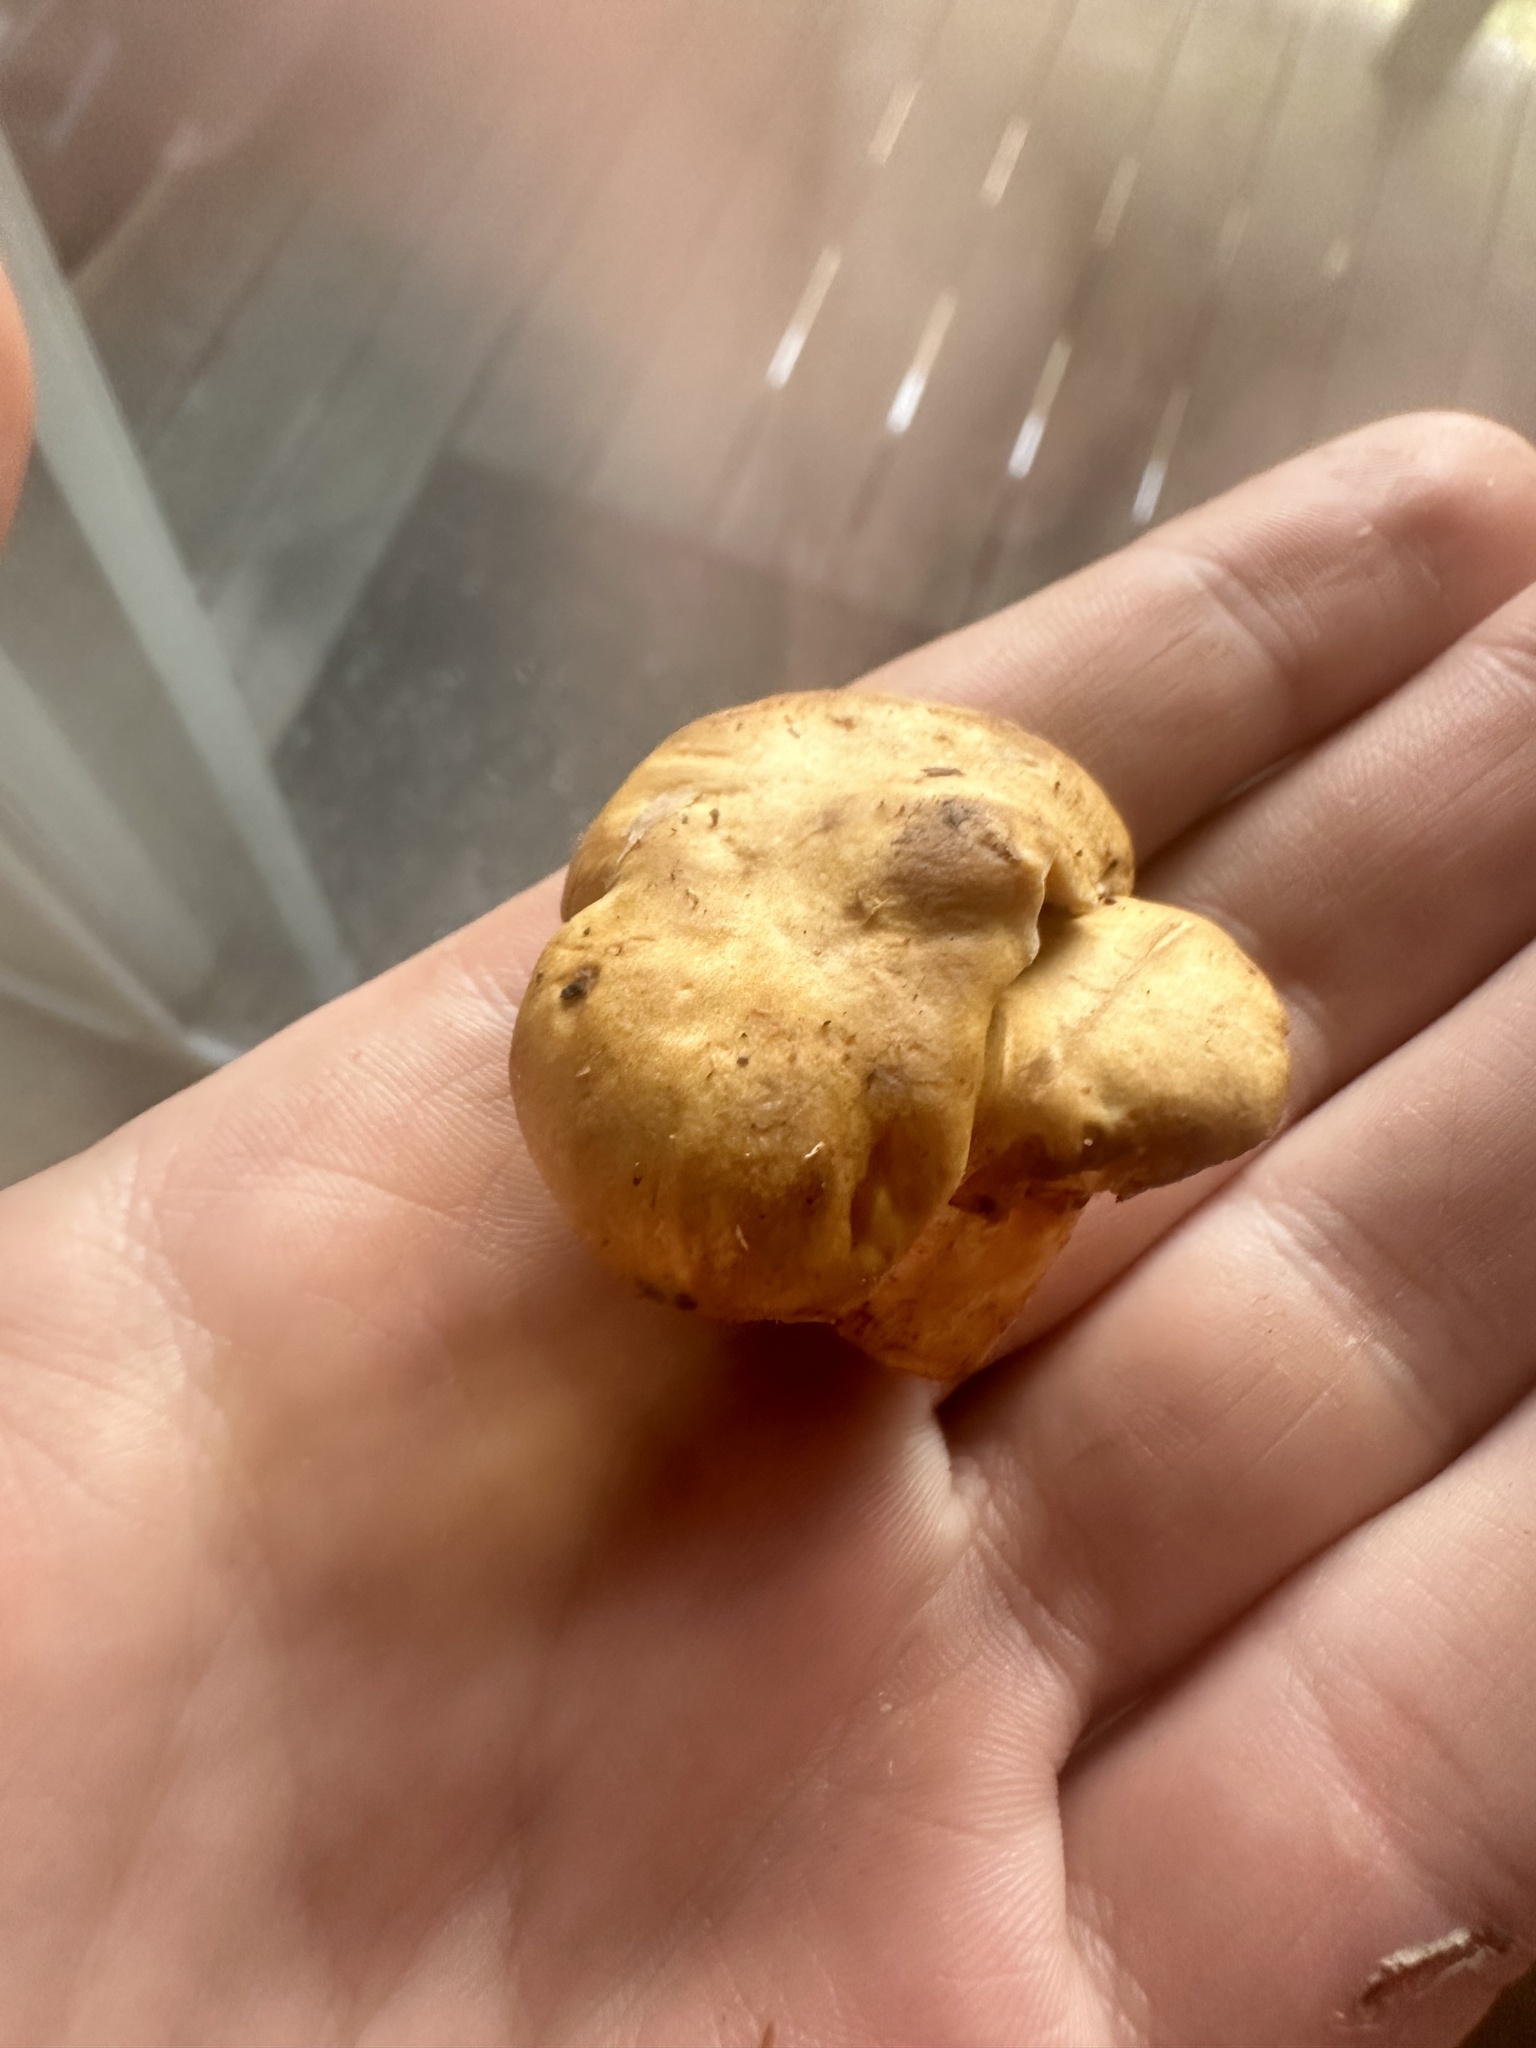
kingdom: Fungi
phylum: Basidiomycota
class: Agaricomycetes
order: Cantharellales
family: Hydnaceae
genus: Cantharellus
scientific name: Cantharellus formosus
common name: Pacific golden chanterelle
